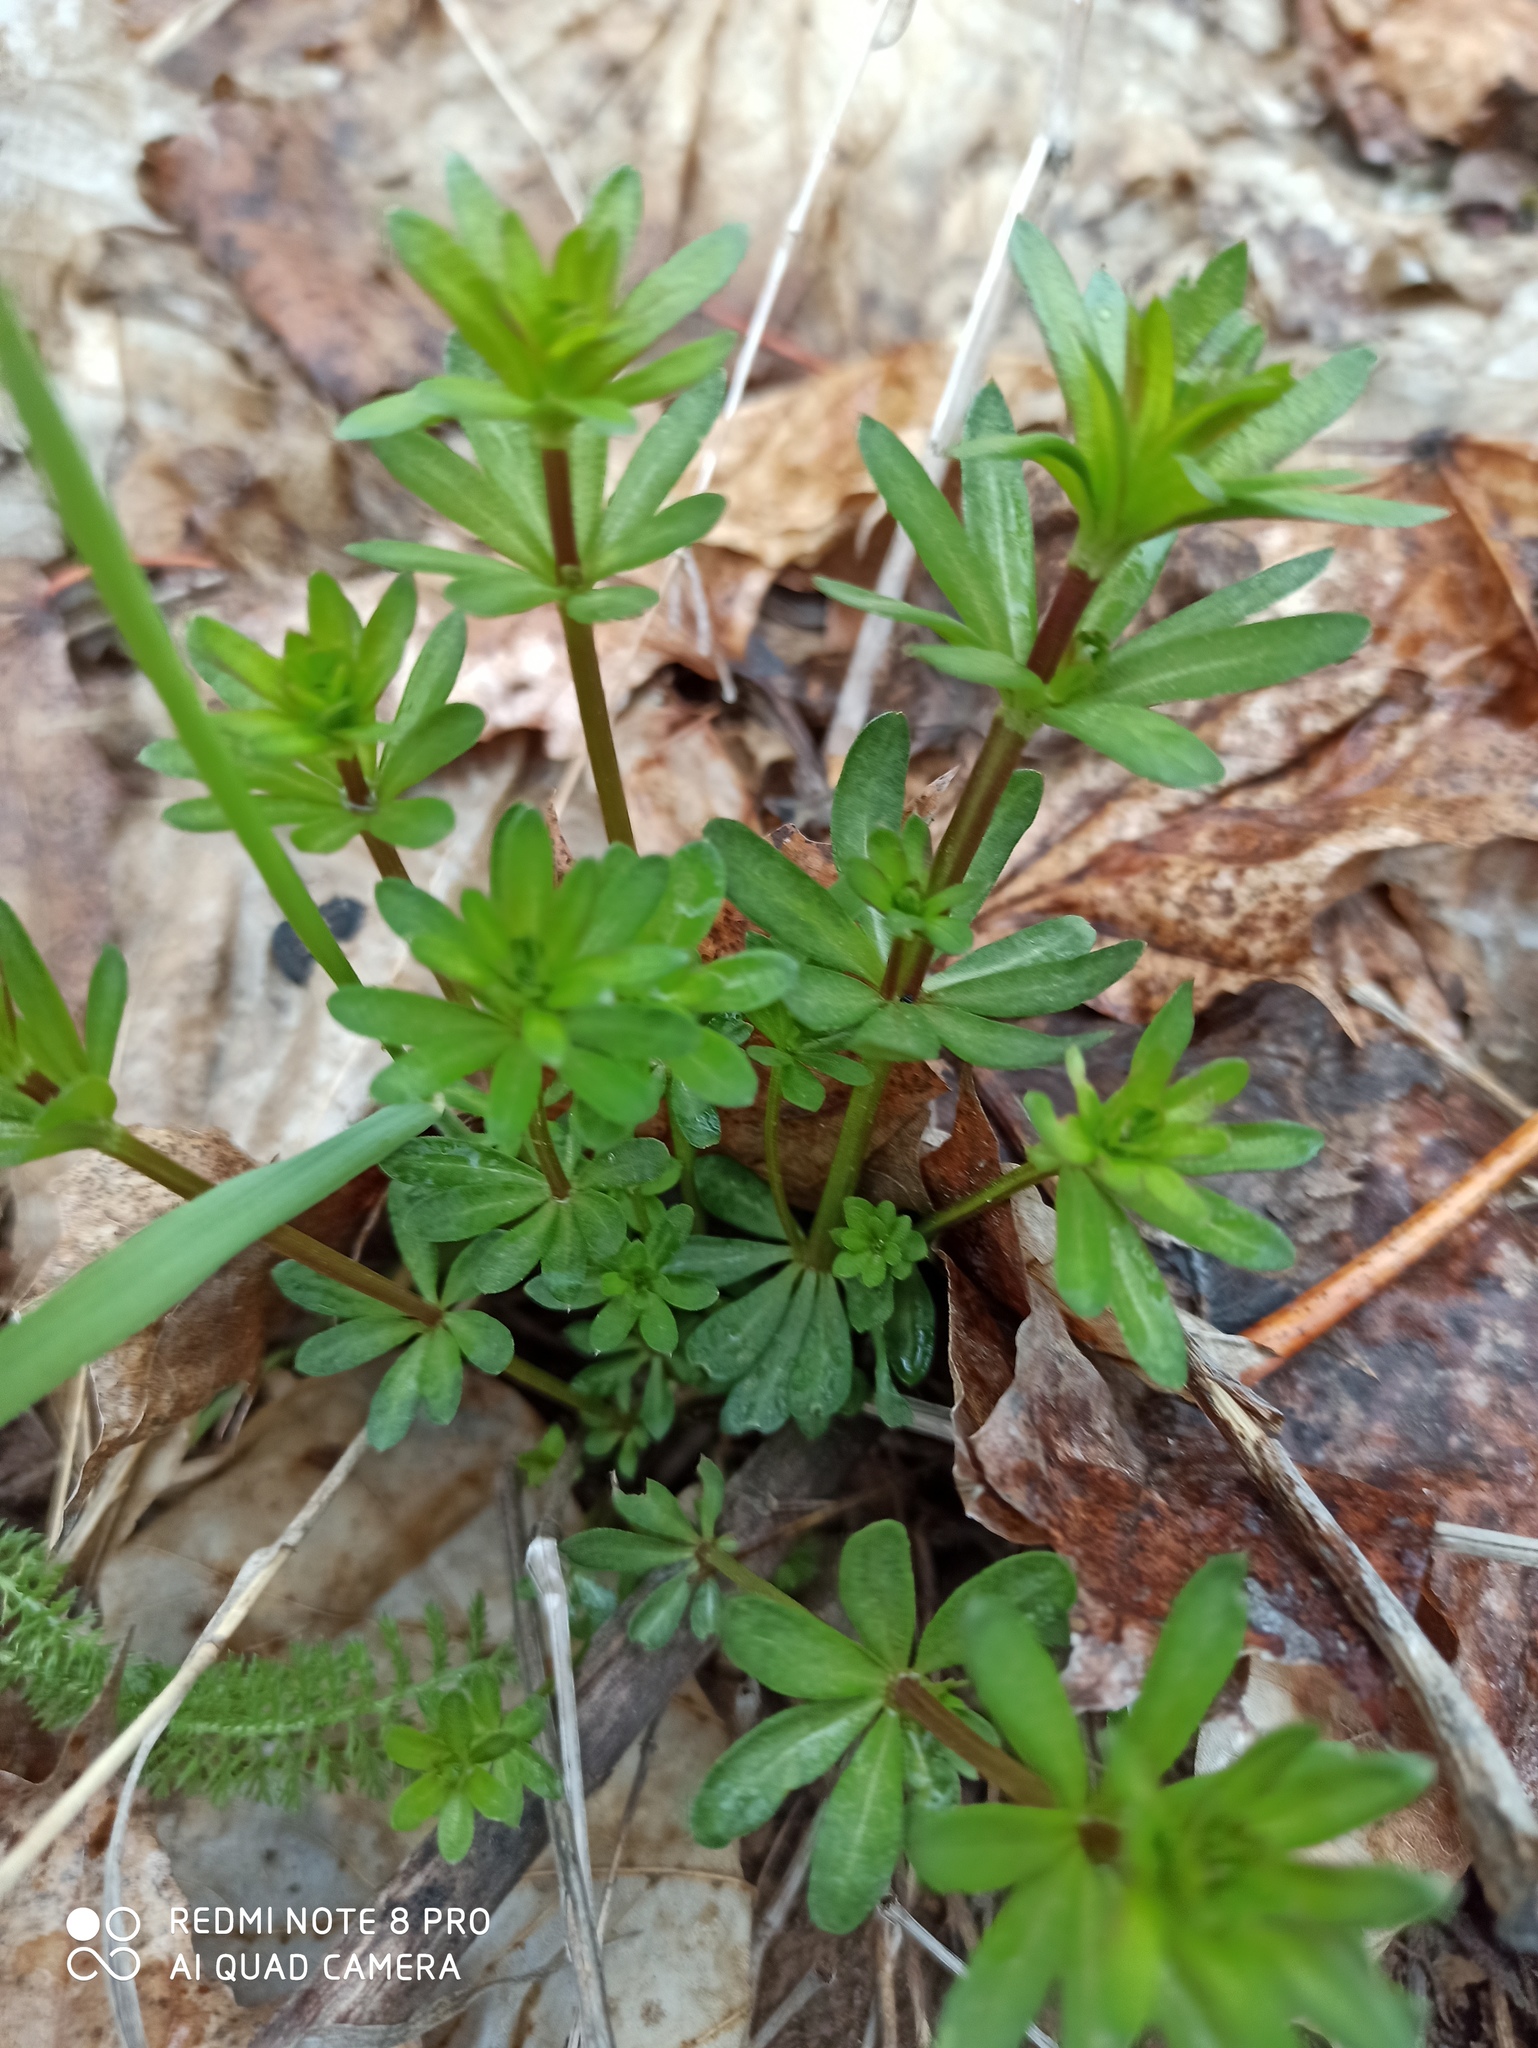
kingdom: Plantae
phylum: Tracheophyta
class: Magnoliopsida
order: Gentianales
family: Rubiaceae
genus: Galium
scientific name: Galium mollugo
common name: Hedge bedstraw
